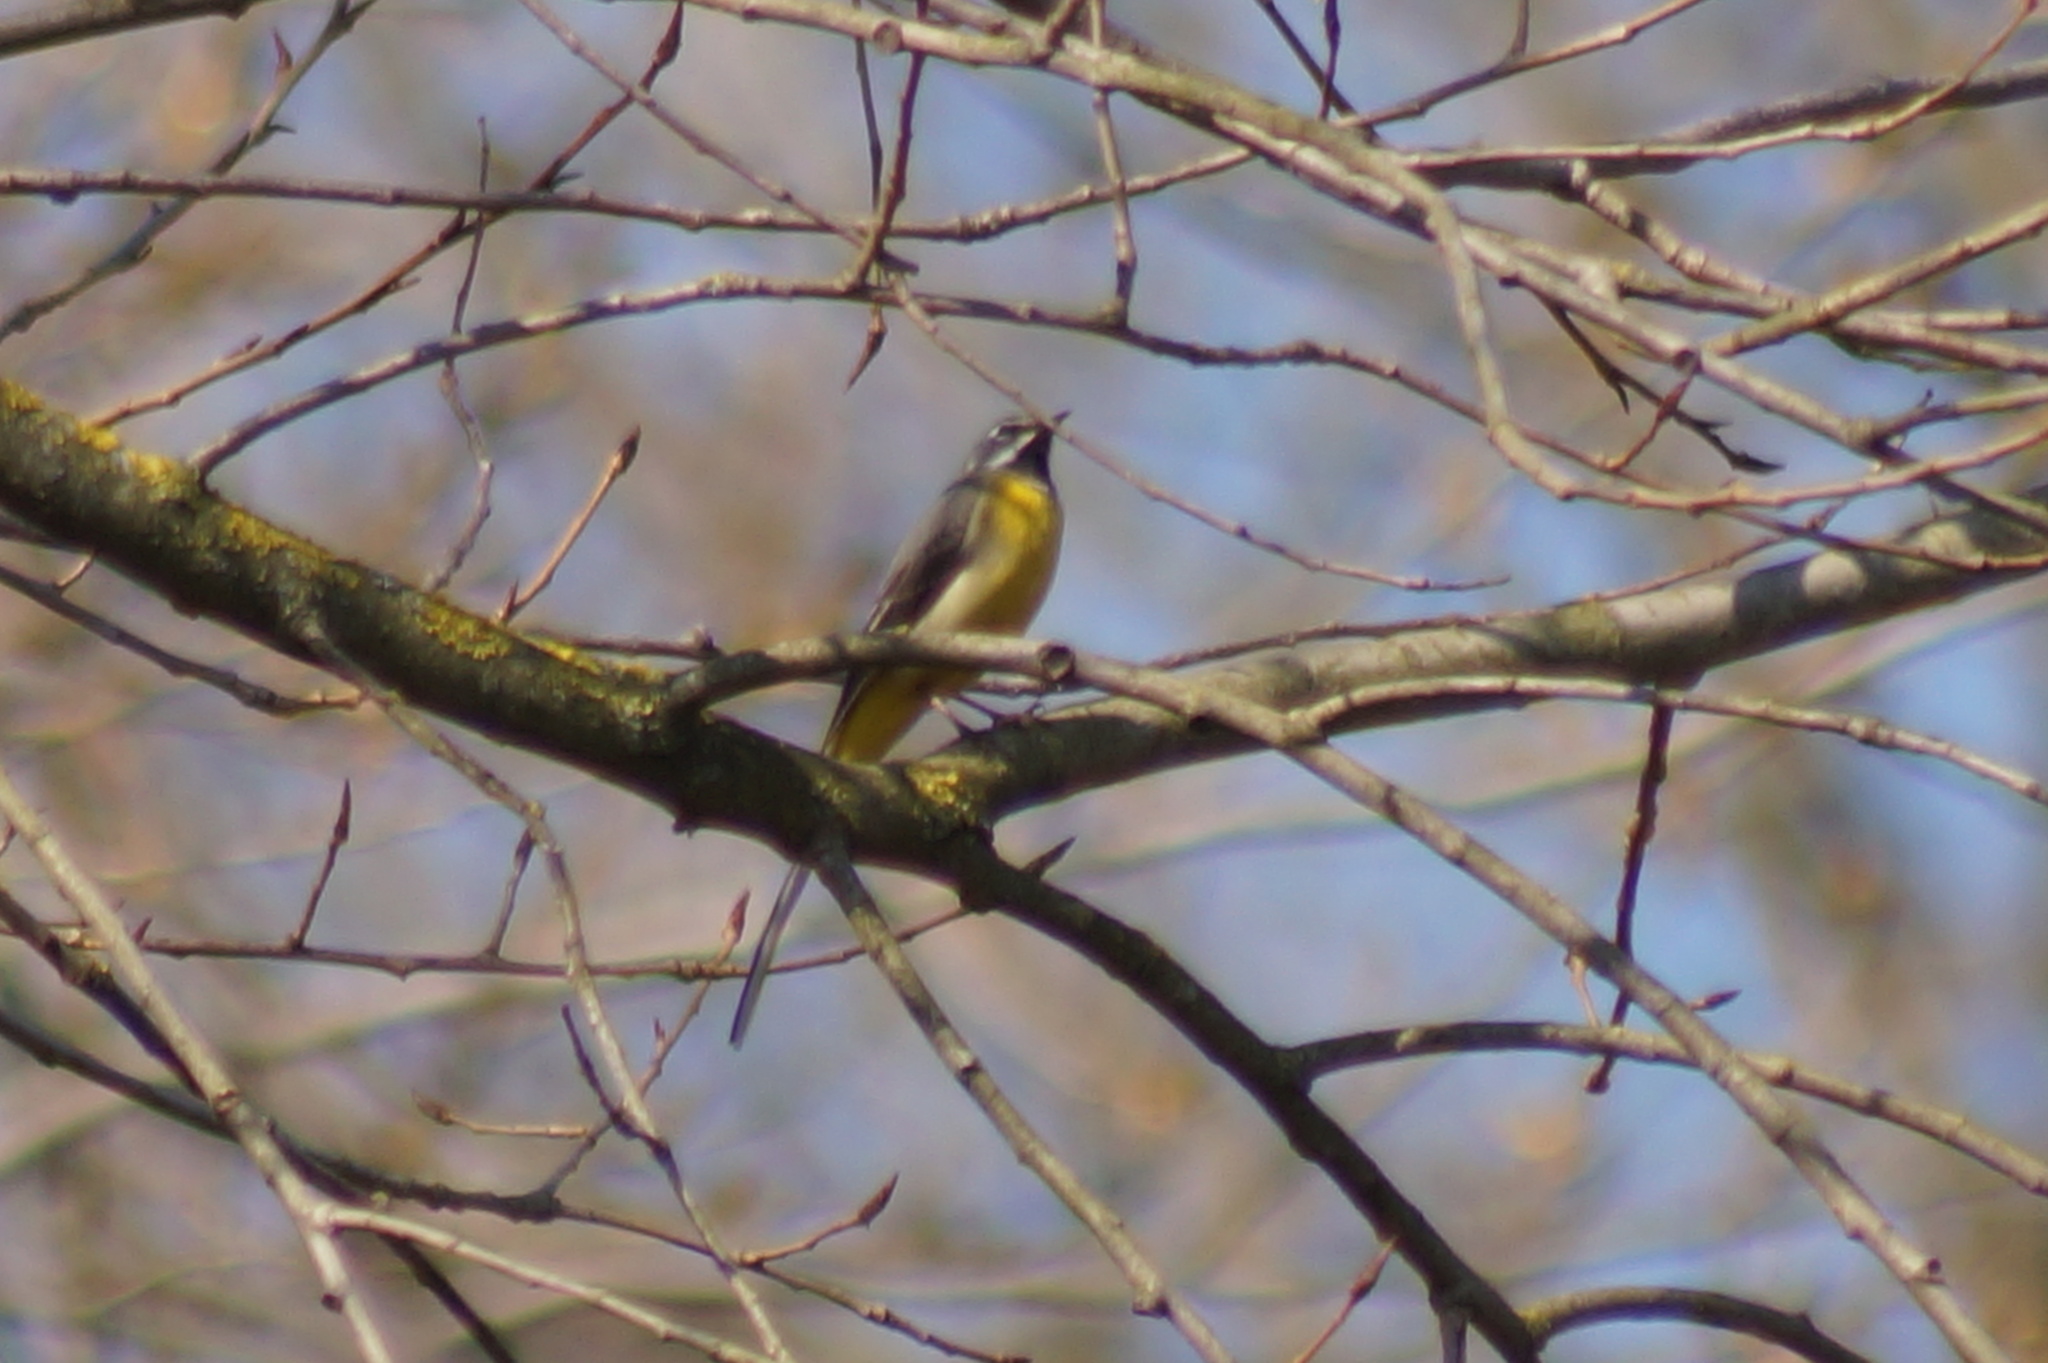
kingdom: Animalia
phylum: Chordata
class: Aves
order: Passeriformes
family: Motacillidae
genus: Motacilla
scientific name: Motacilla cinerea
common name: Grey wagtail
